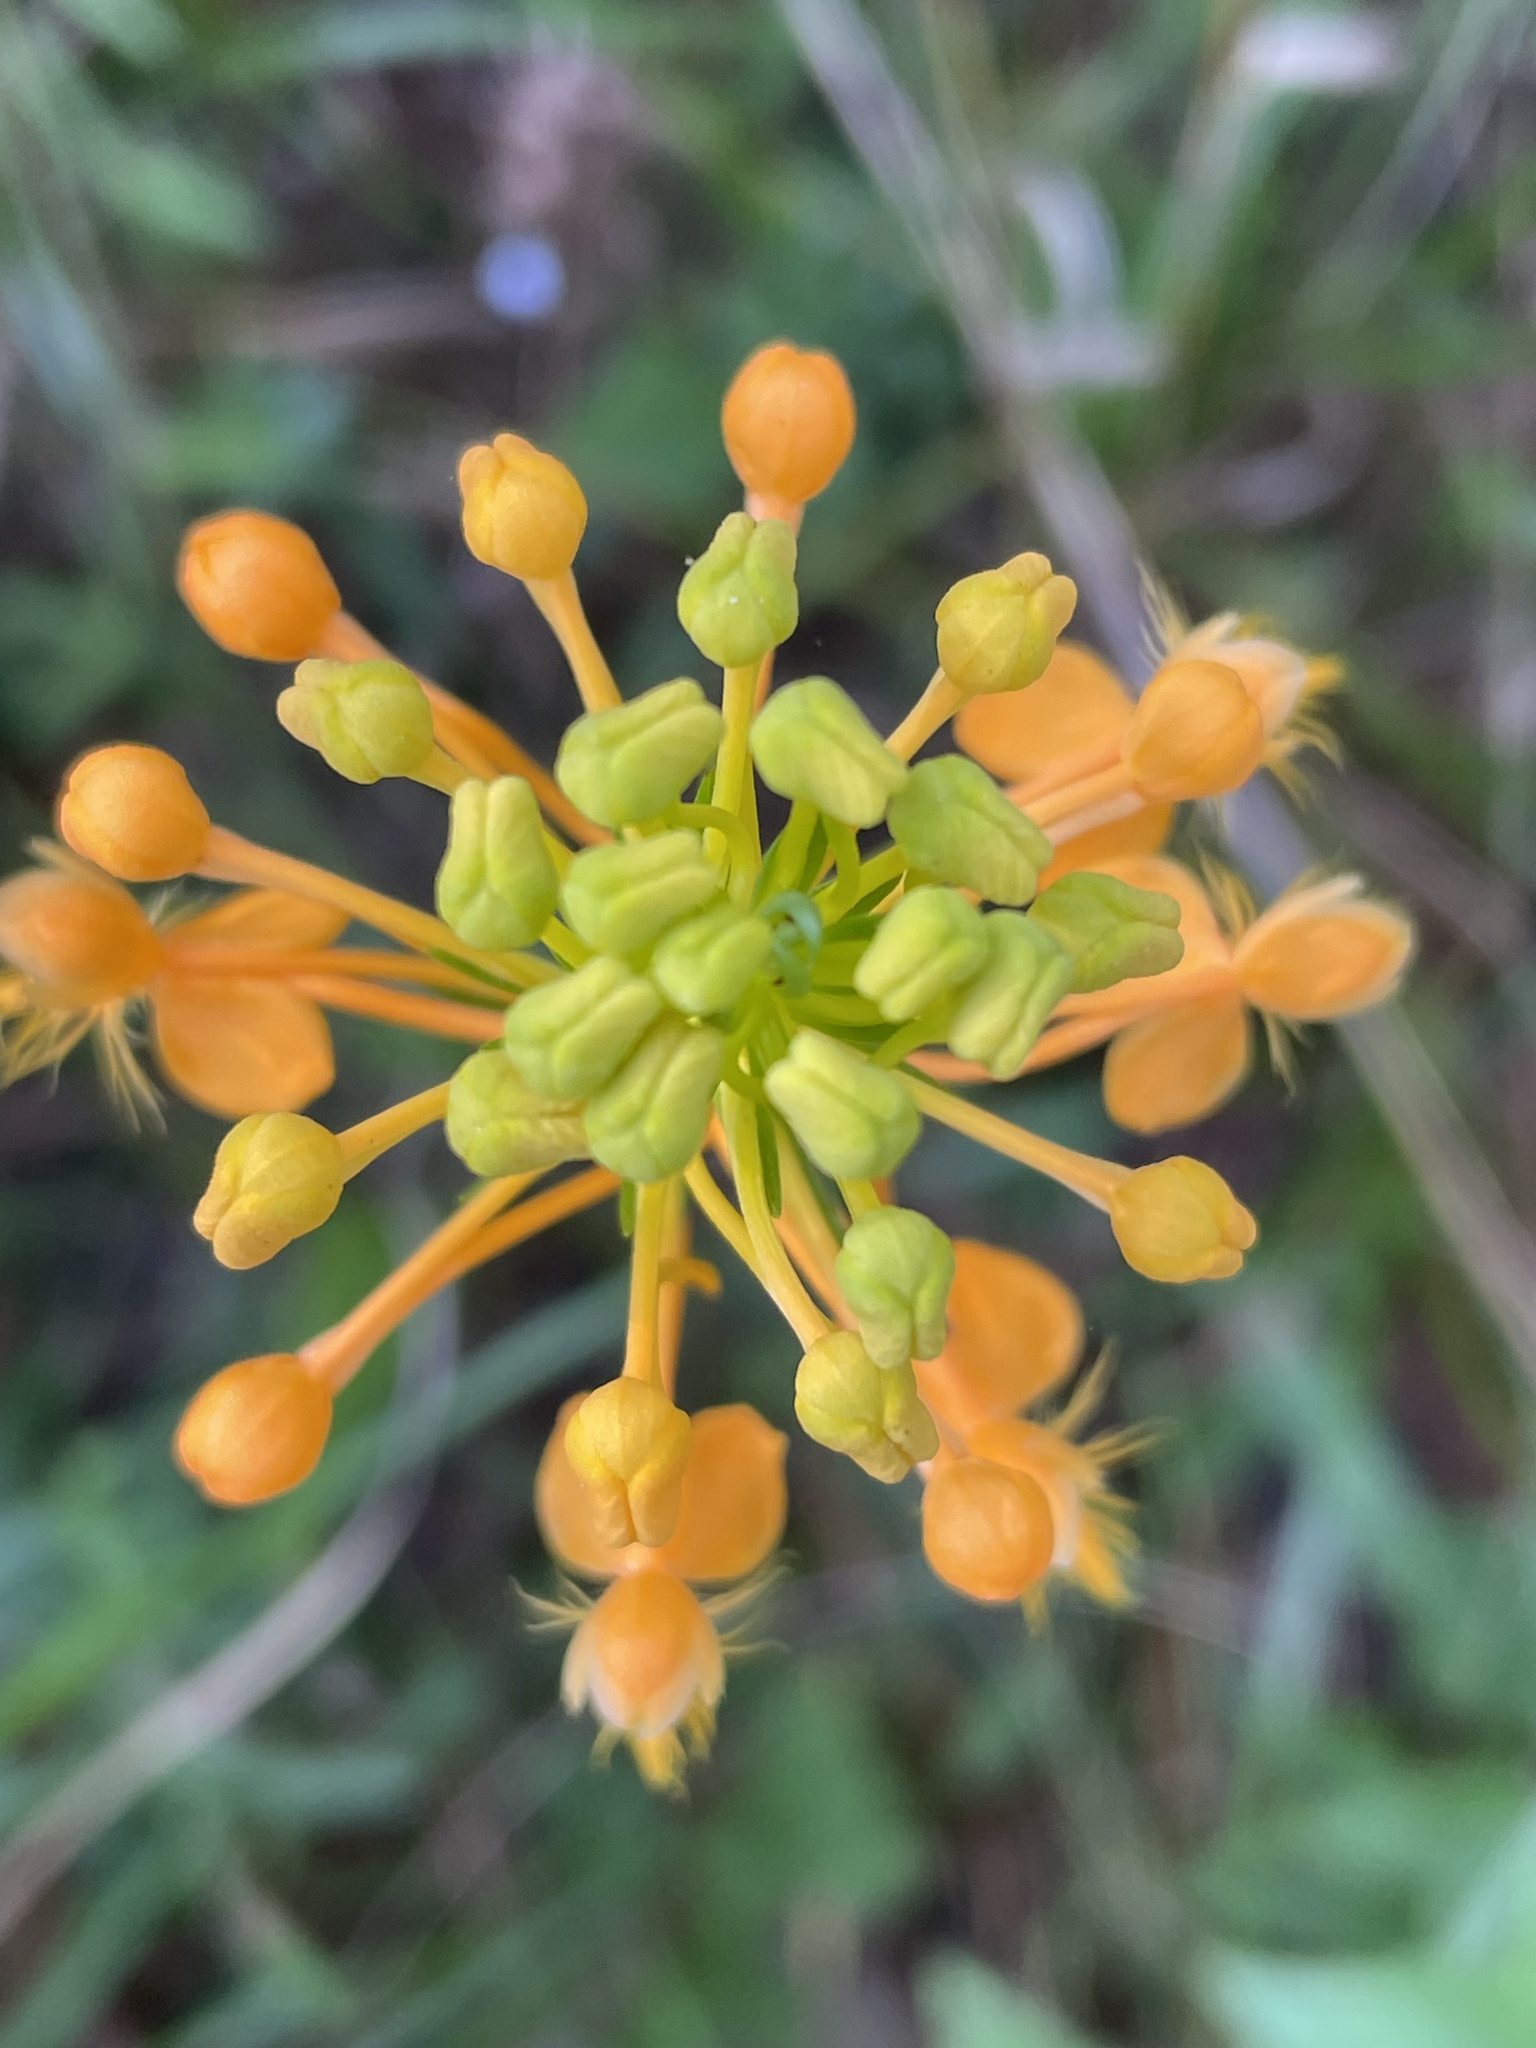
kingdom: Plantae
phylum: Tracheophyta
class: Liliopsida
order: Asparagales
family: Orchidaceae
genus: Platanthera
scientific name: Platanthera ciliaris
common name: Yellow fringed orchid
